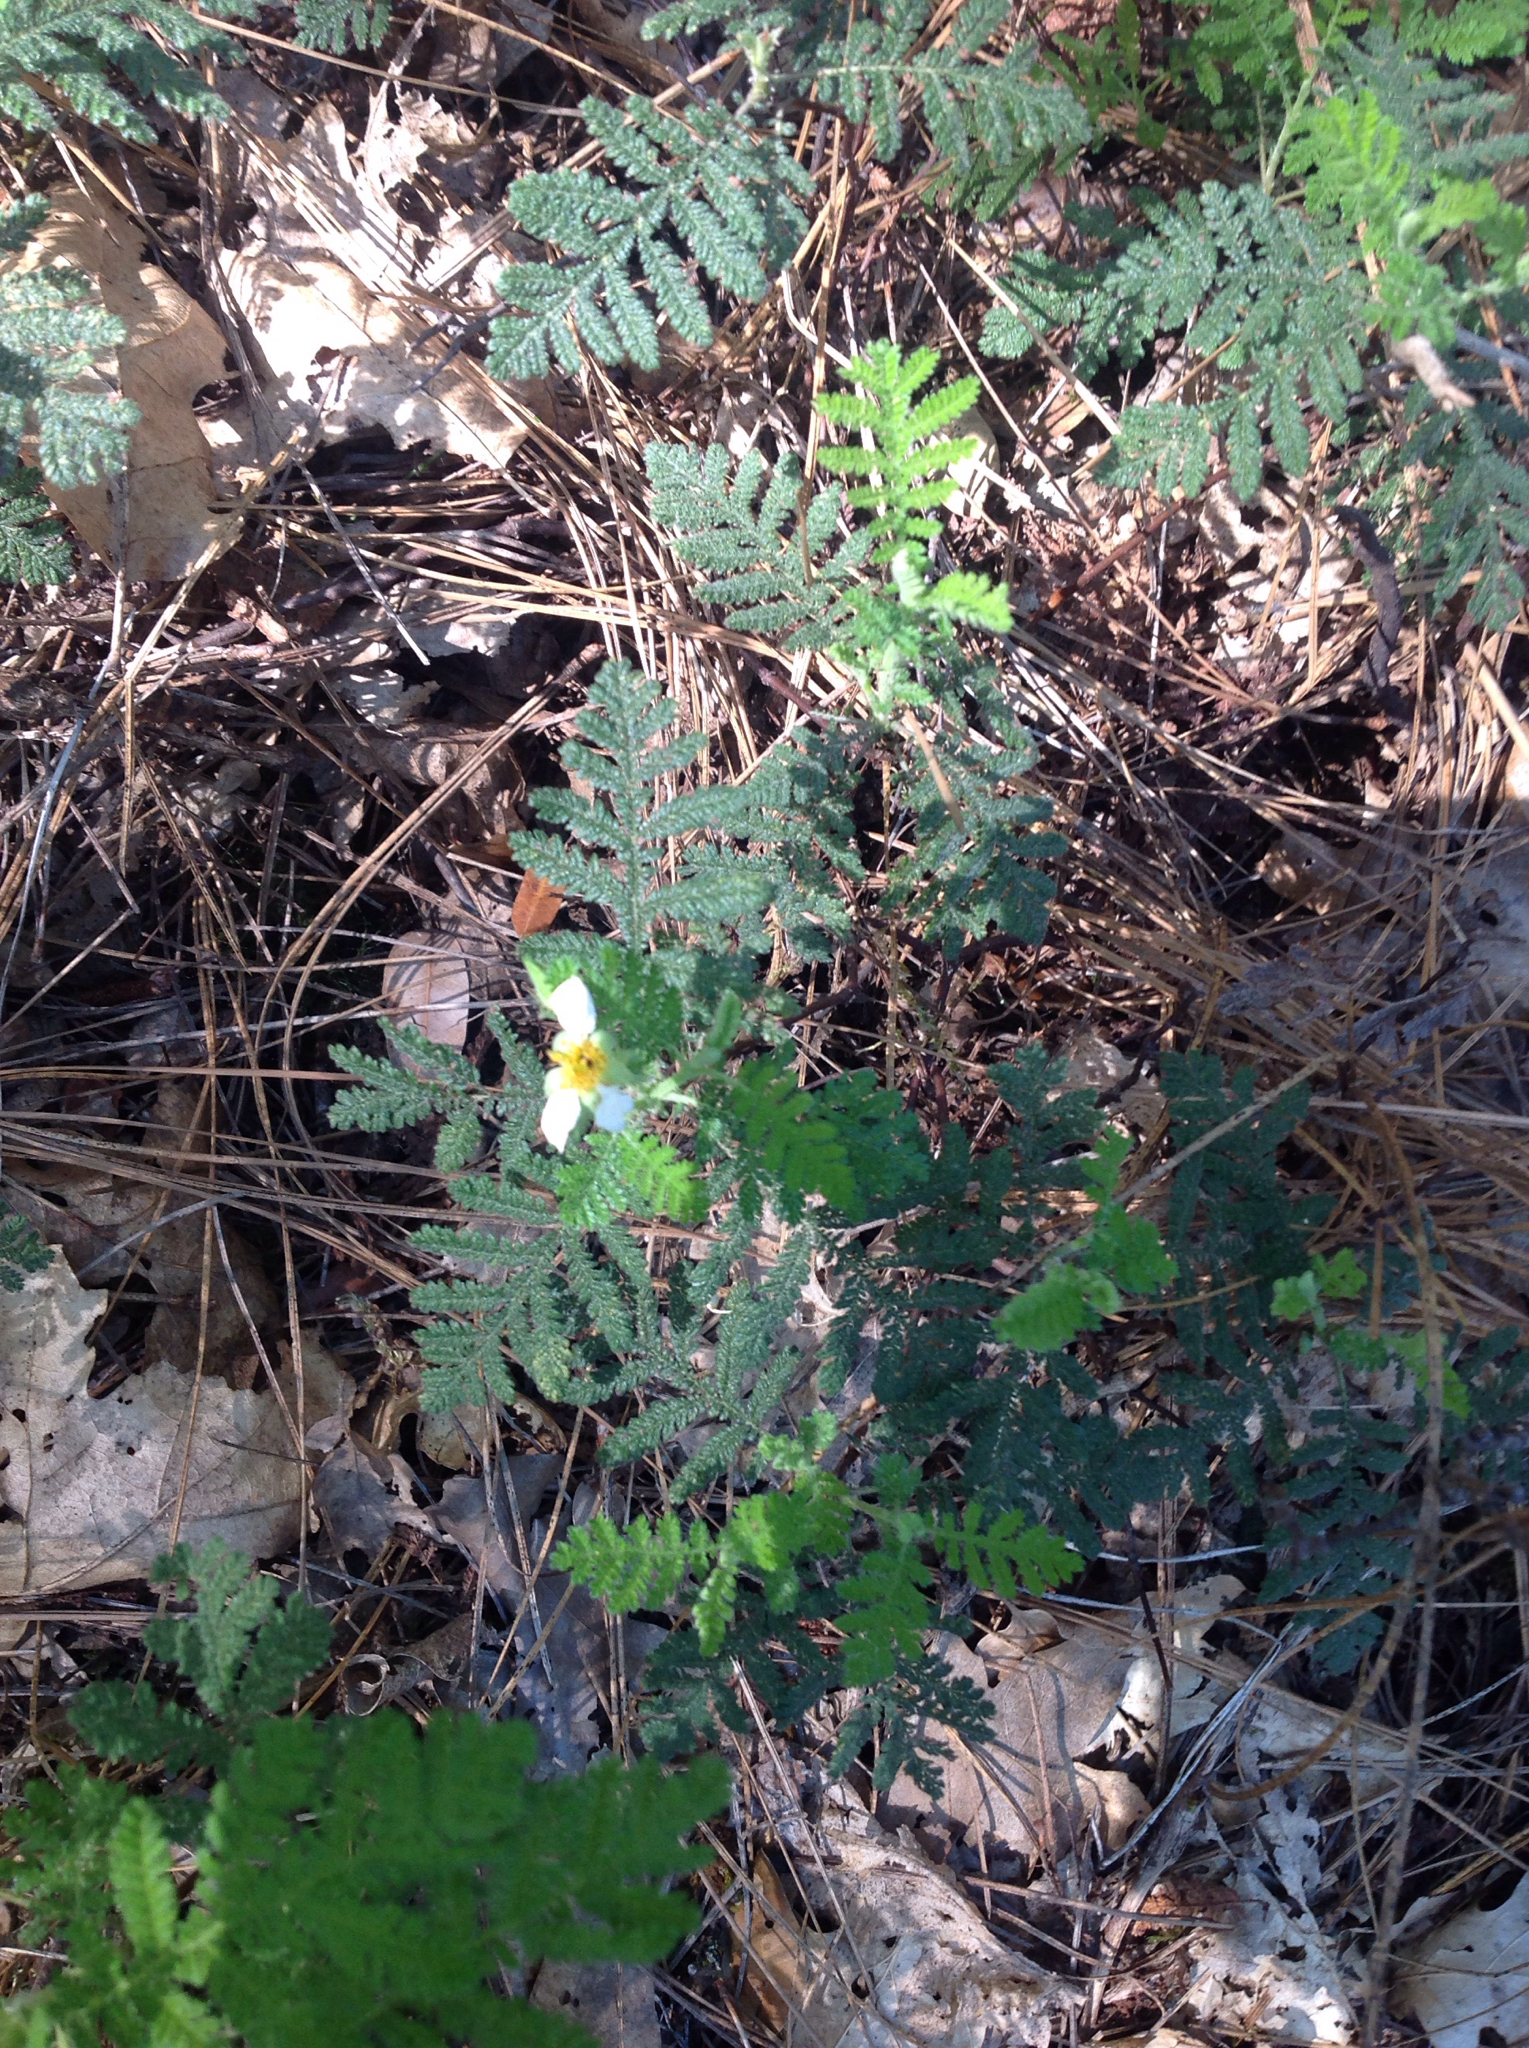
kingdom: Plantae
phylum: Tracheophyta
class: Magnoliopsida
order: Rosales
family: Rosaceae
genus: Chamaebatia
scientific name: Chamaebatia foliolosa
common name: Mountain misery
